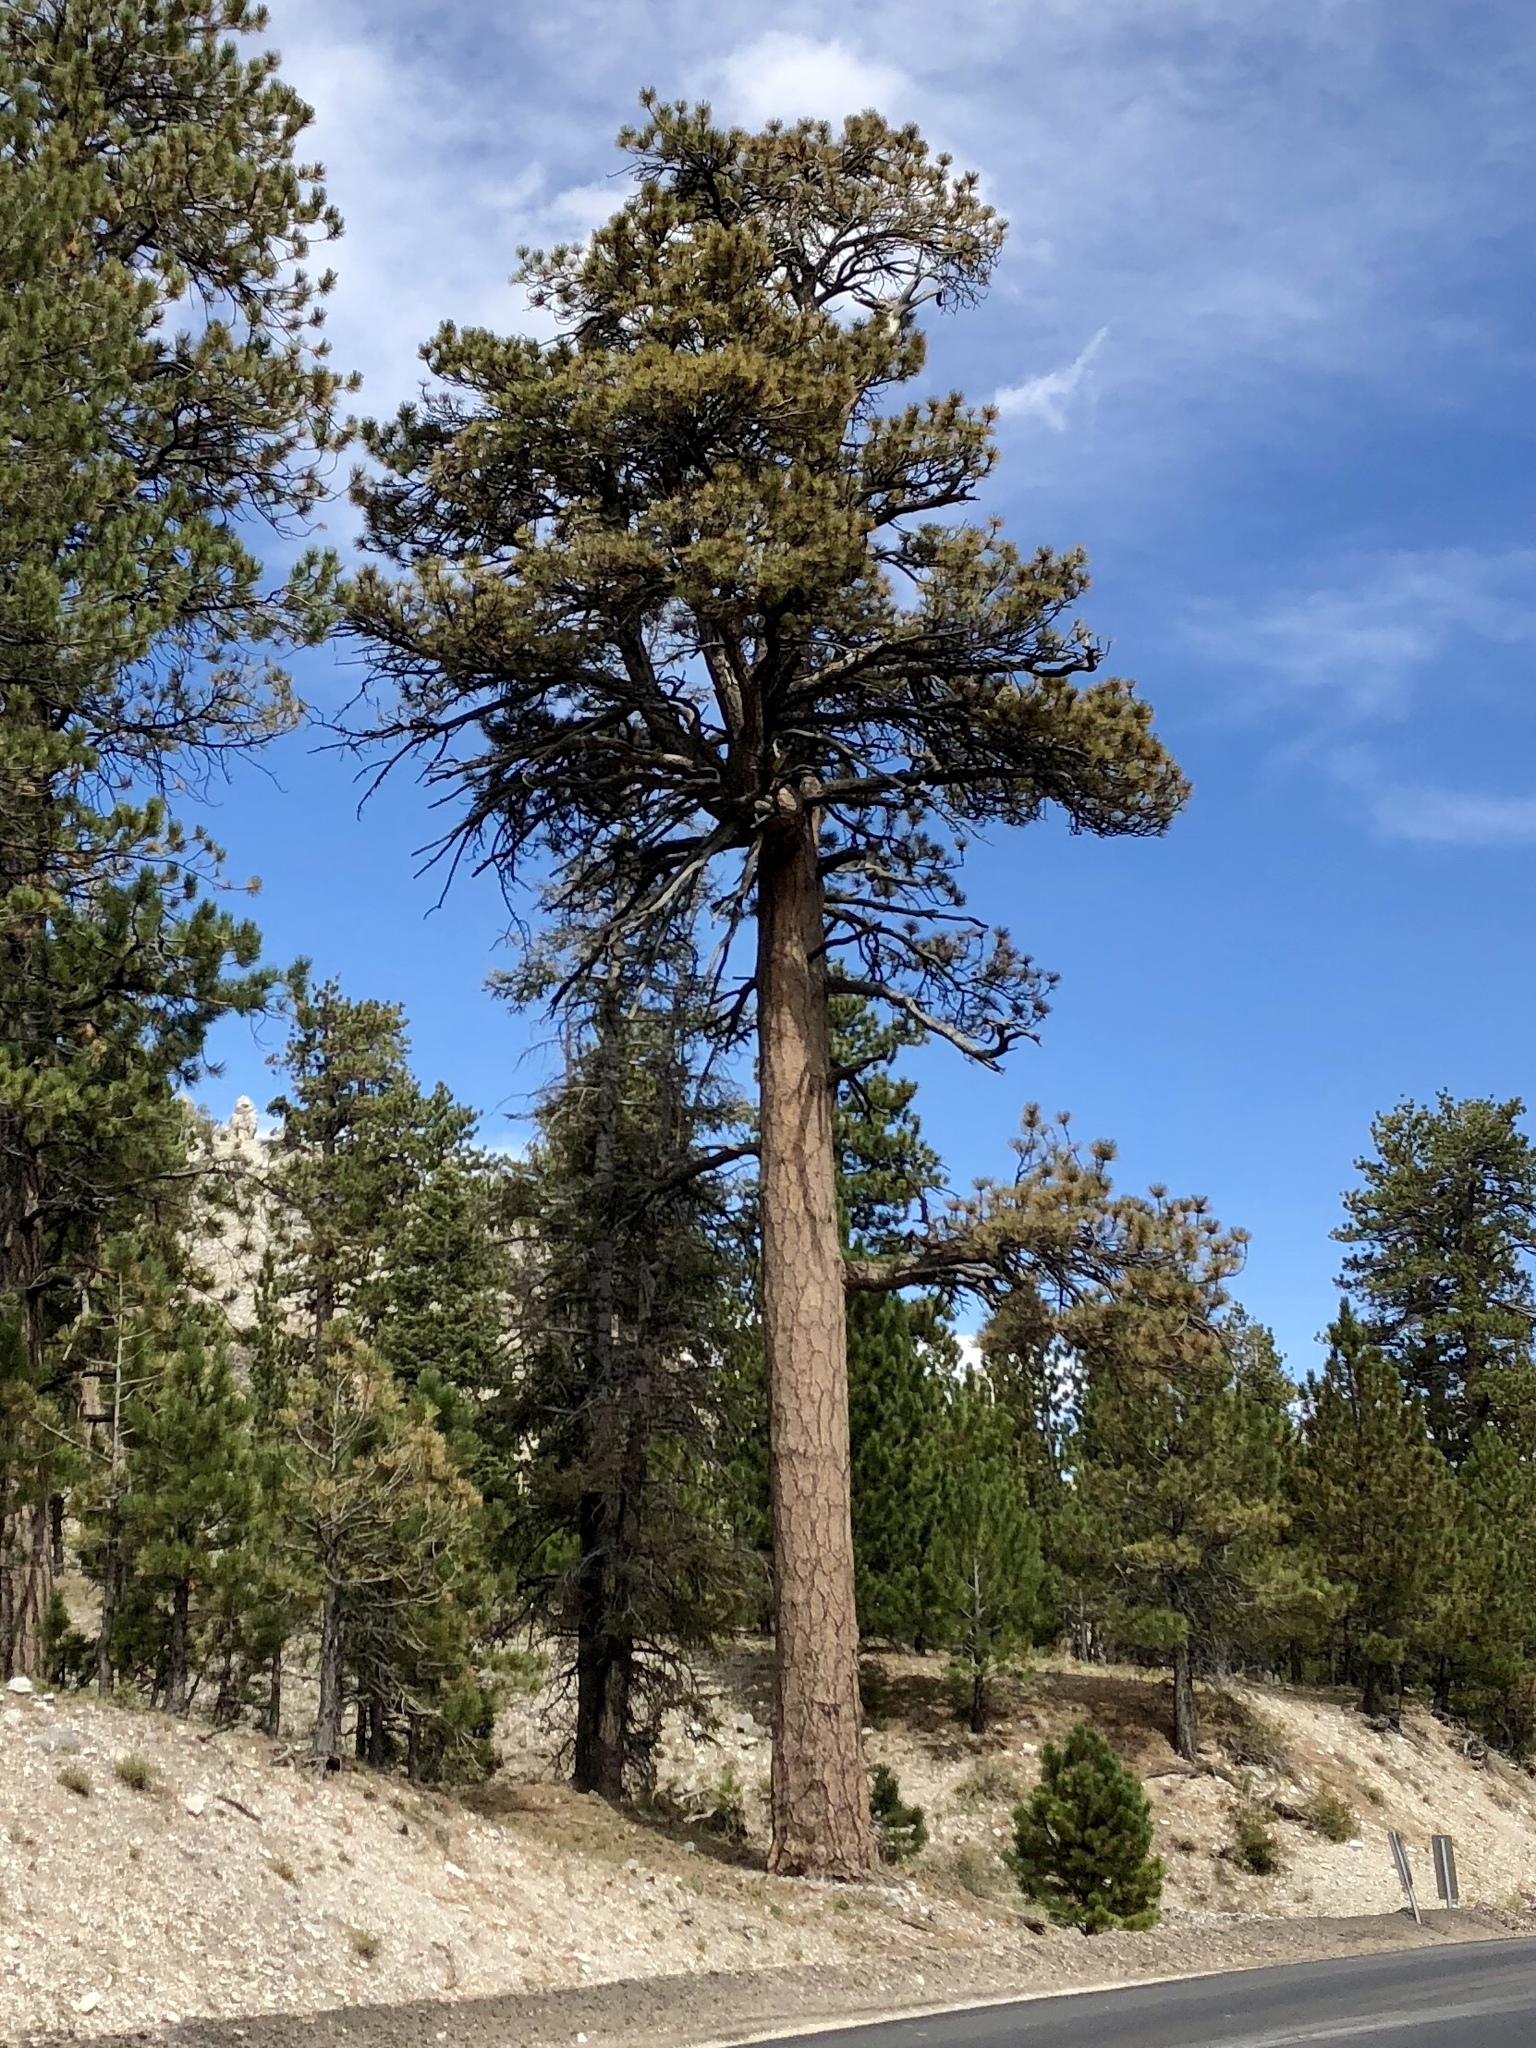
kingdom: Plantae
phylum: Tracheophyta
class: Pinopsida
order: Pinales
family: Pinaceae
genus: Pinus
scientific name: Pinus ponderosa
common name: Western yellow-pine
